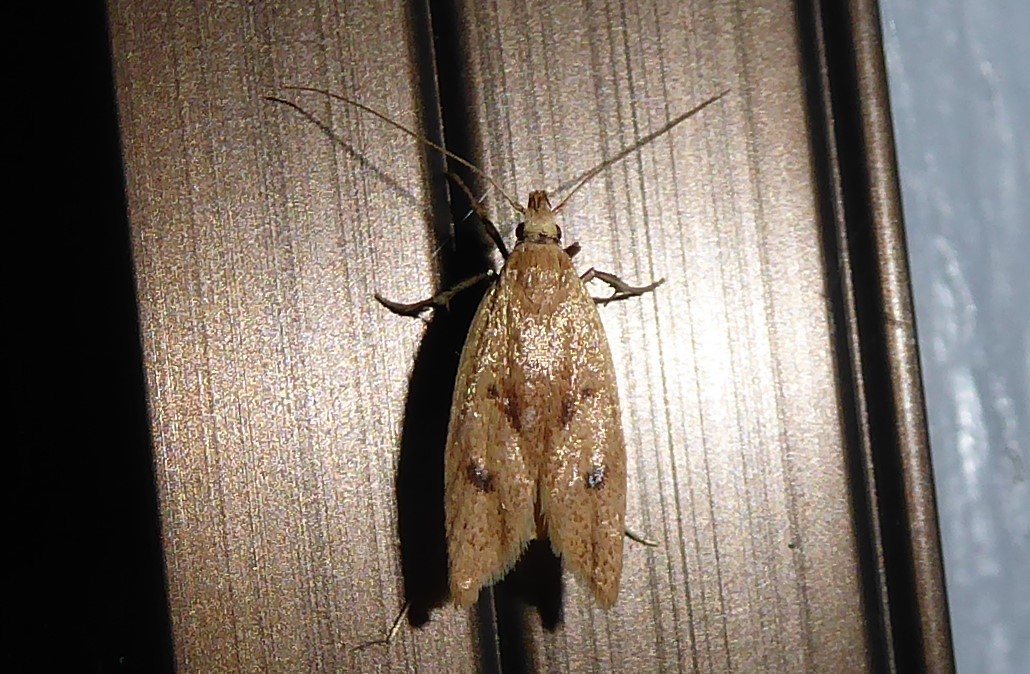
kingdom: Animalia
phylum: Arthropoda
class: Insecta
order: Lepidoptera
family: Oecophoridae
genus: Gymnobathra
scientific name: Gymnobathra sarcoxantha
